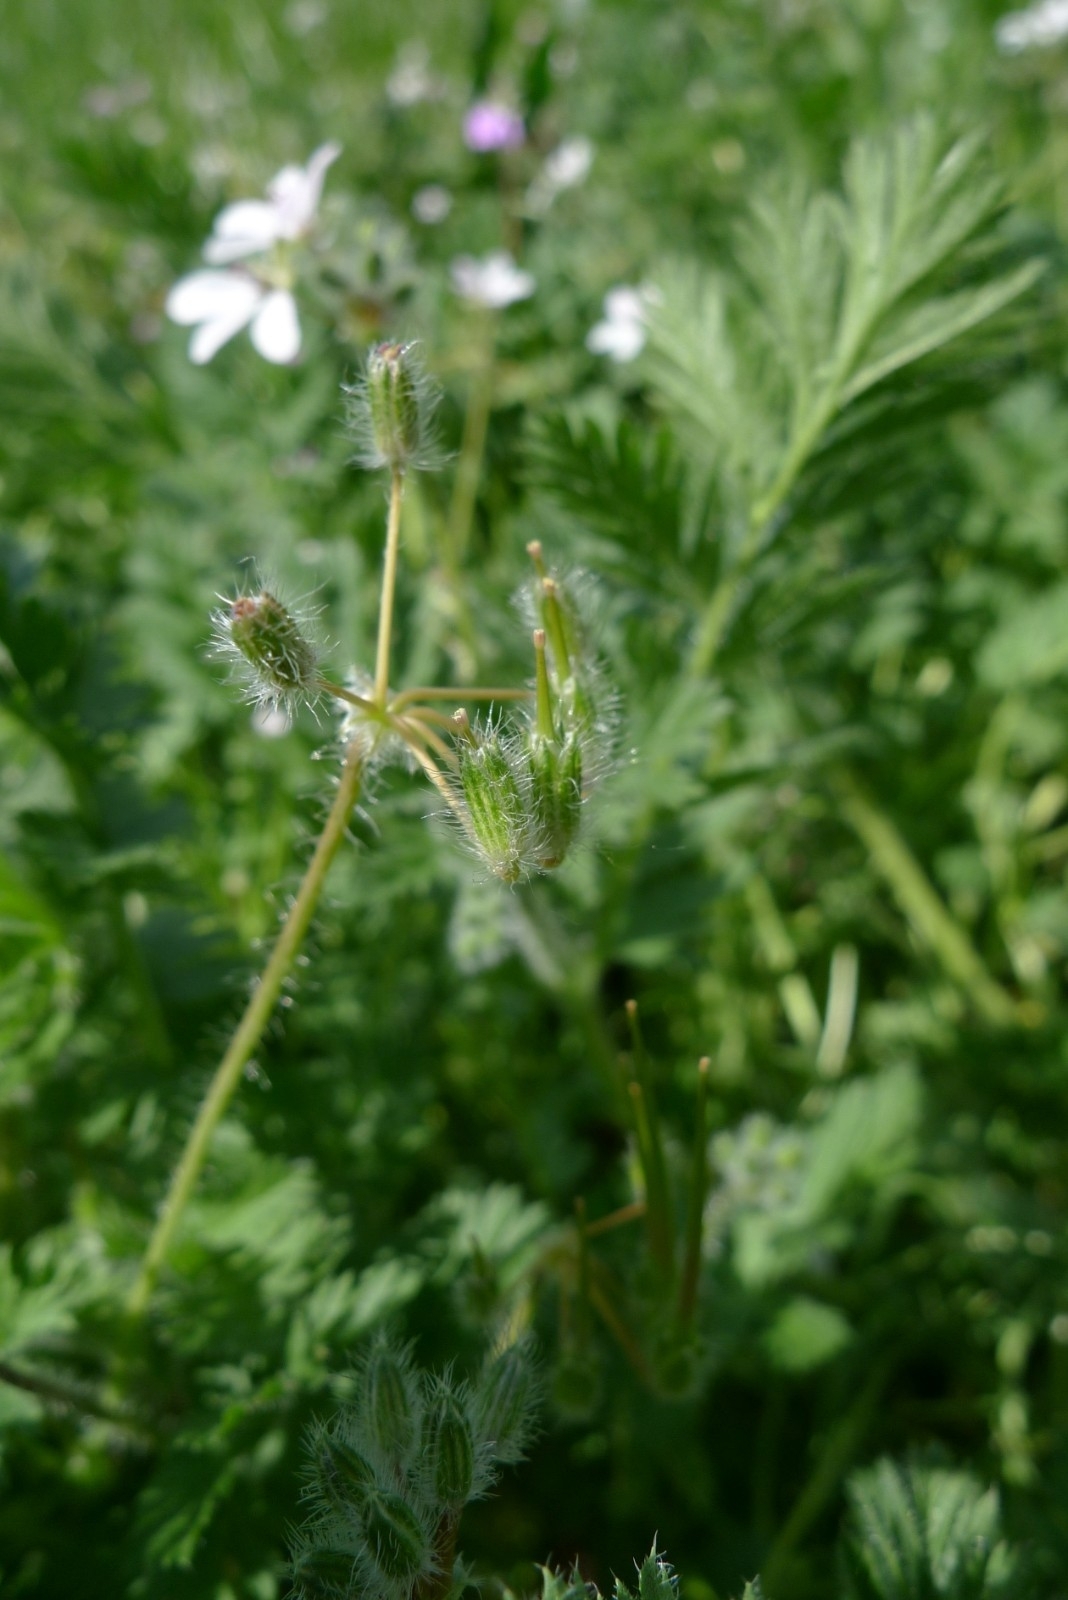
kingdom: Plantae
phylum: Tracheophyta
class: Magnoliopsida
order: Geraniales
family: Geraniaceae
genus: Erodium
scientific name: Erodium cicutarium
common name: Common stork's-bill
